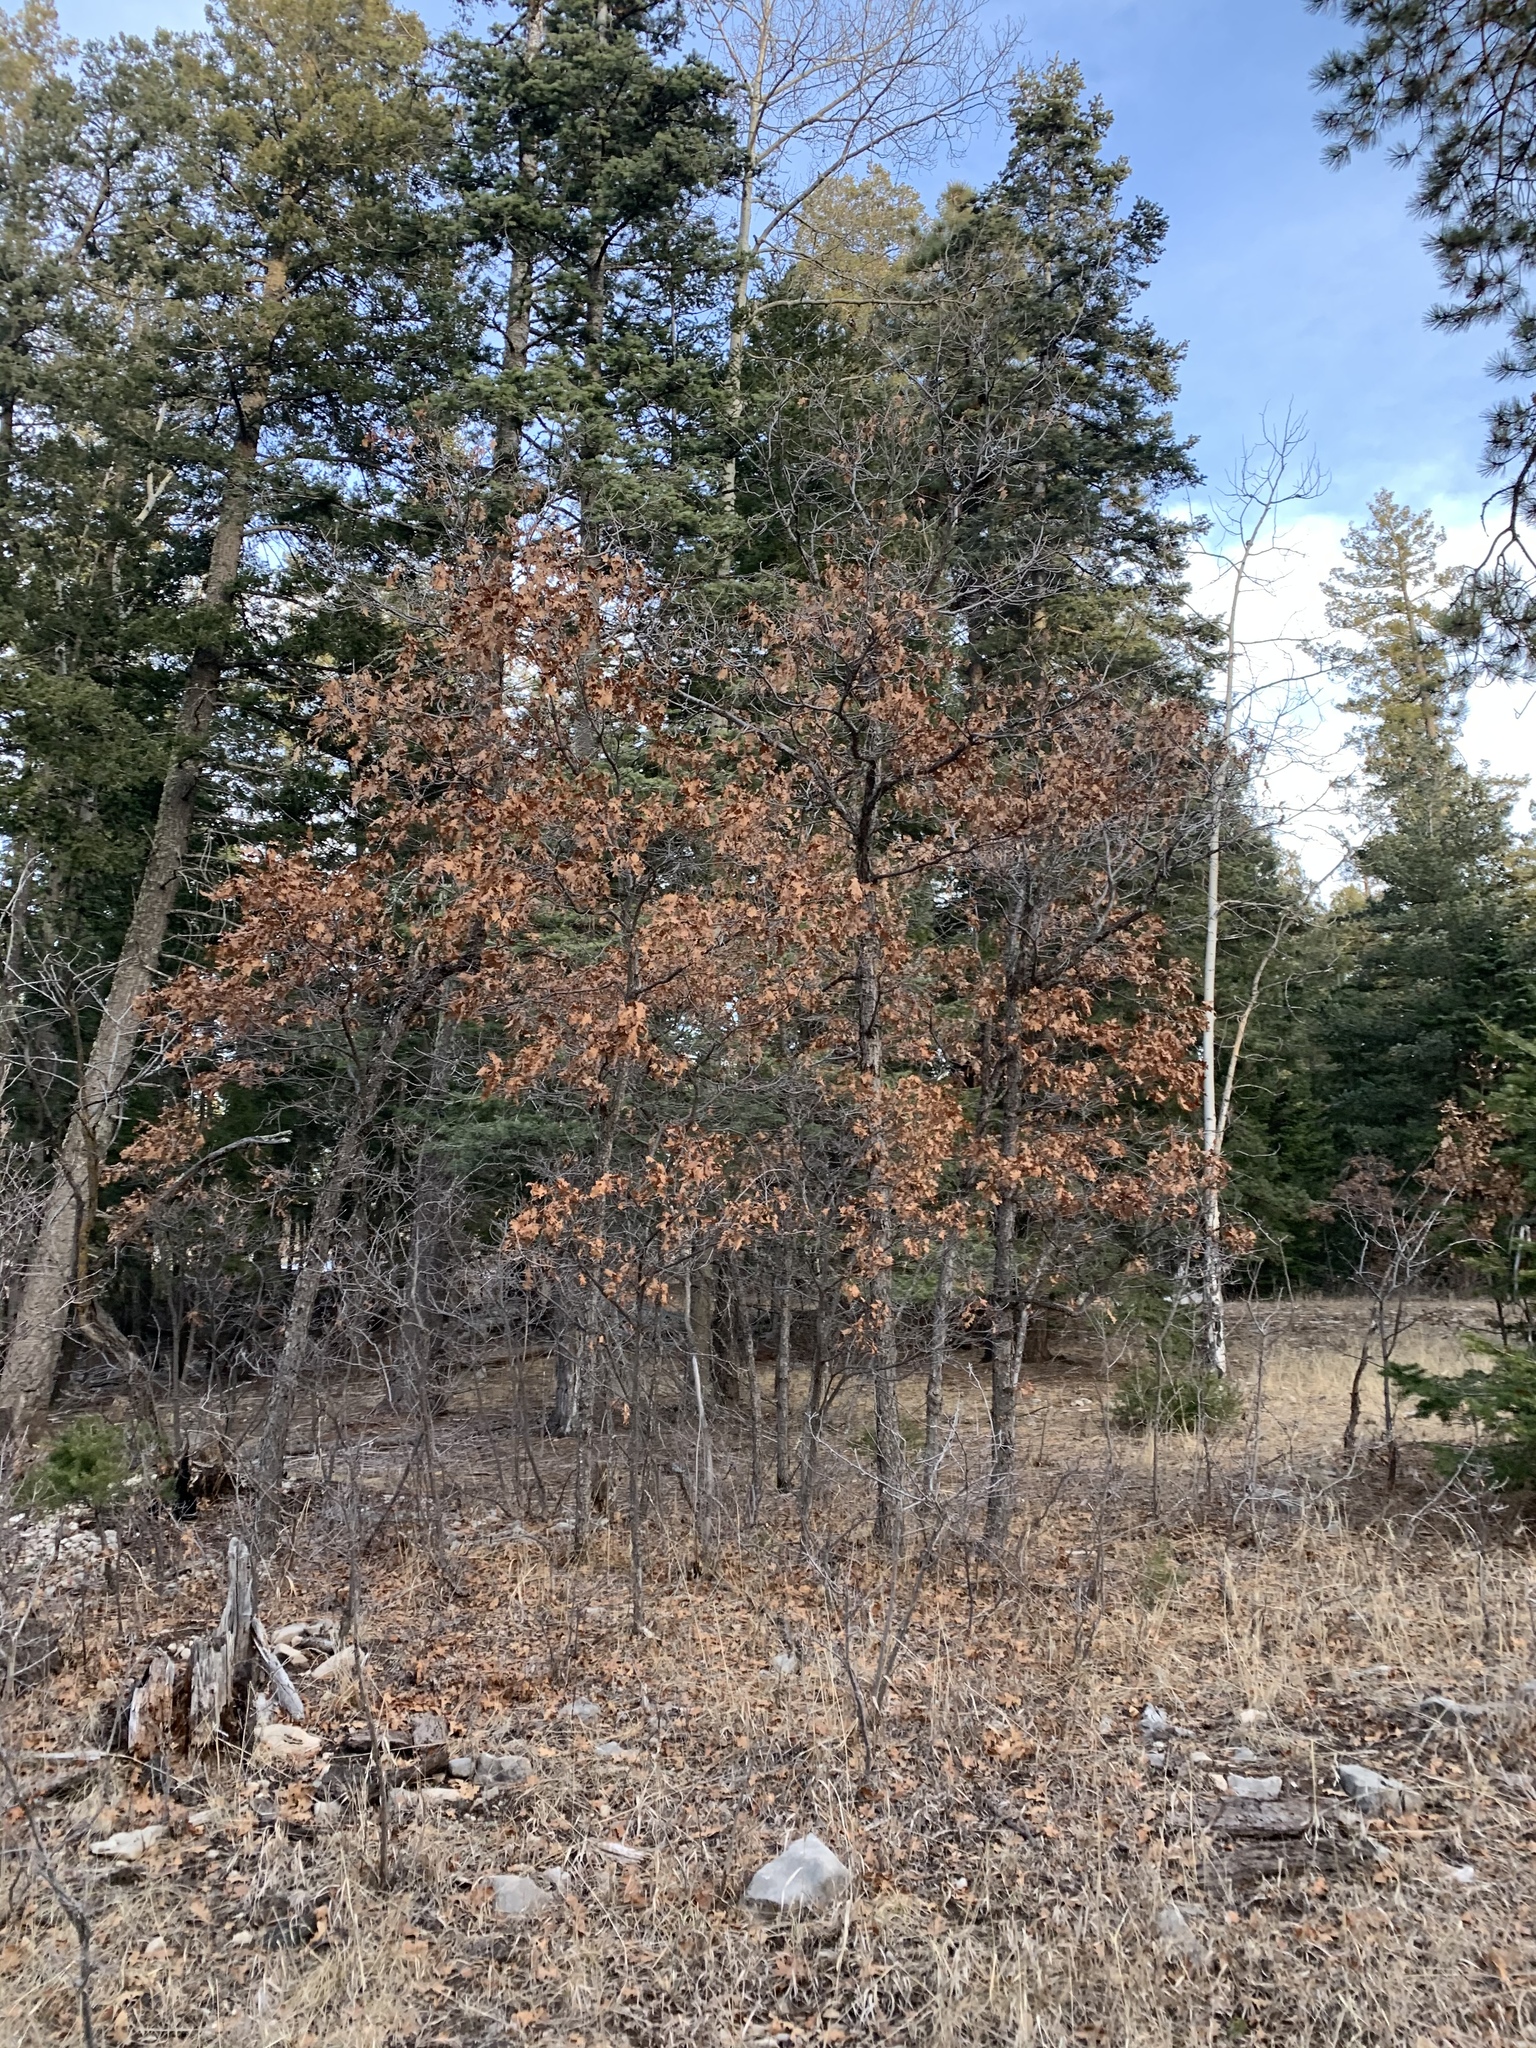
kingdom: Plantae
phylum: Tracheophyta
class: Magnoliopsida
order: Fagales
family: Fagaceae
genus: Quercus
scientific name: Quercus gambelii
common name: Gambel oak
